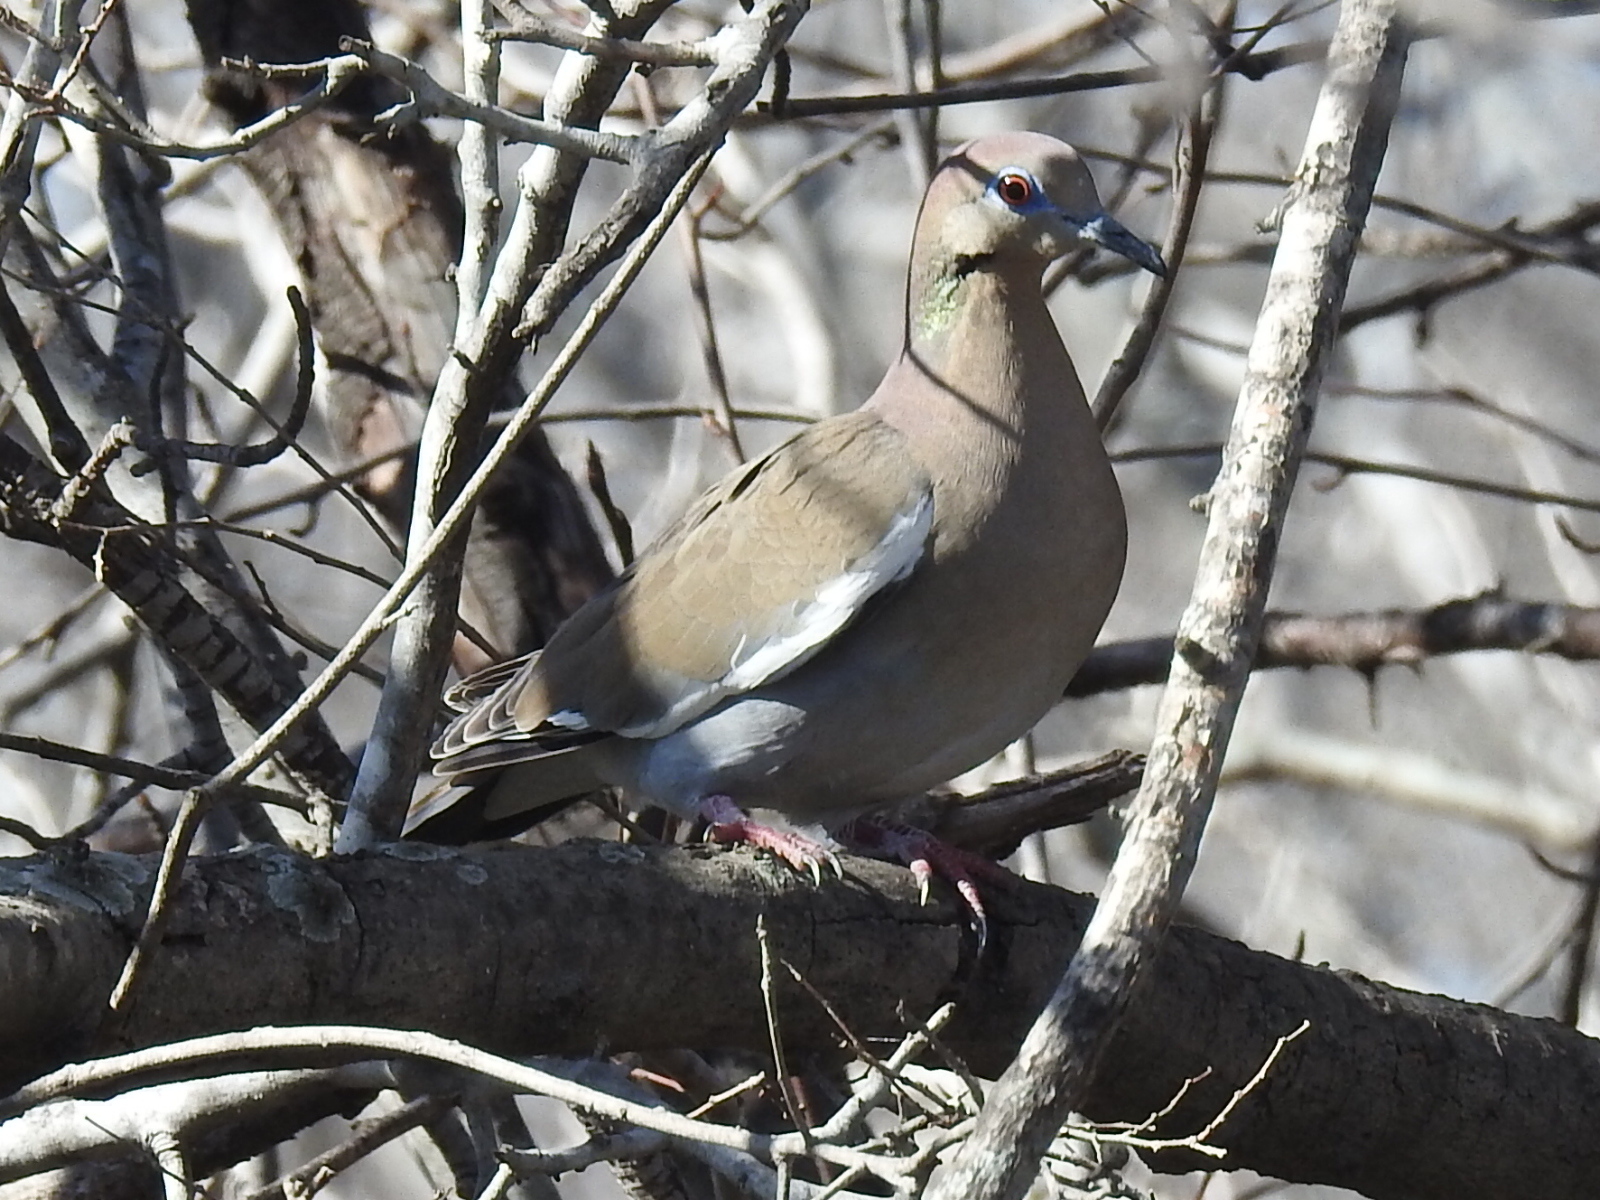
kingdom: Animalia
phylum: Chordata
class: Aves
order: Columbiformes
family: Columbidae
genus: Zenaida
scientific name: Zenaida asiatica
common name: White-winged dove
